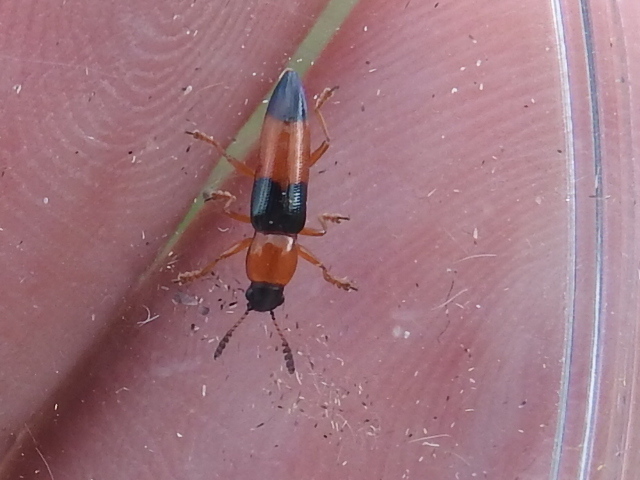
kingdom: Animalia
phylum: Arthropoda
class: Insecta
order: Coleoptera
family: Erotylidae
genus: Languria
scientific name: Languria trifasciata
